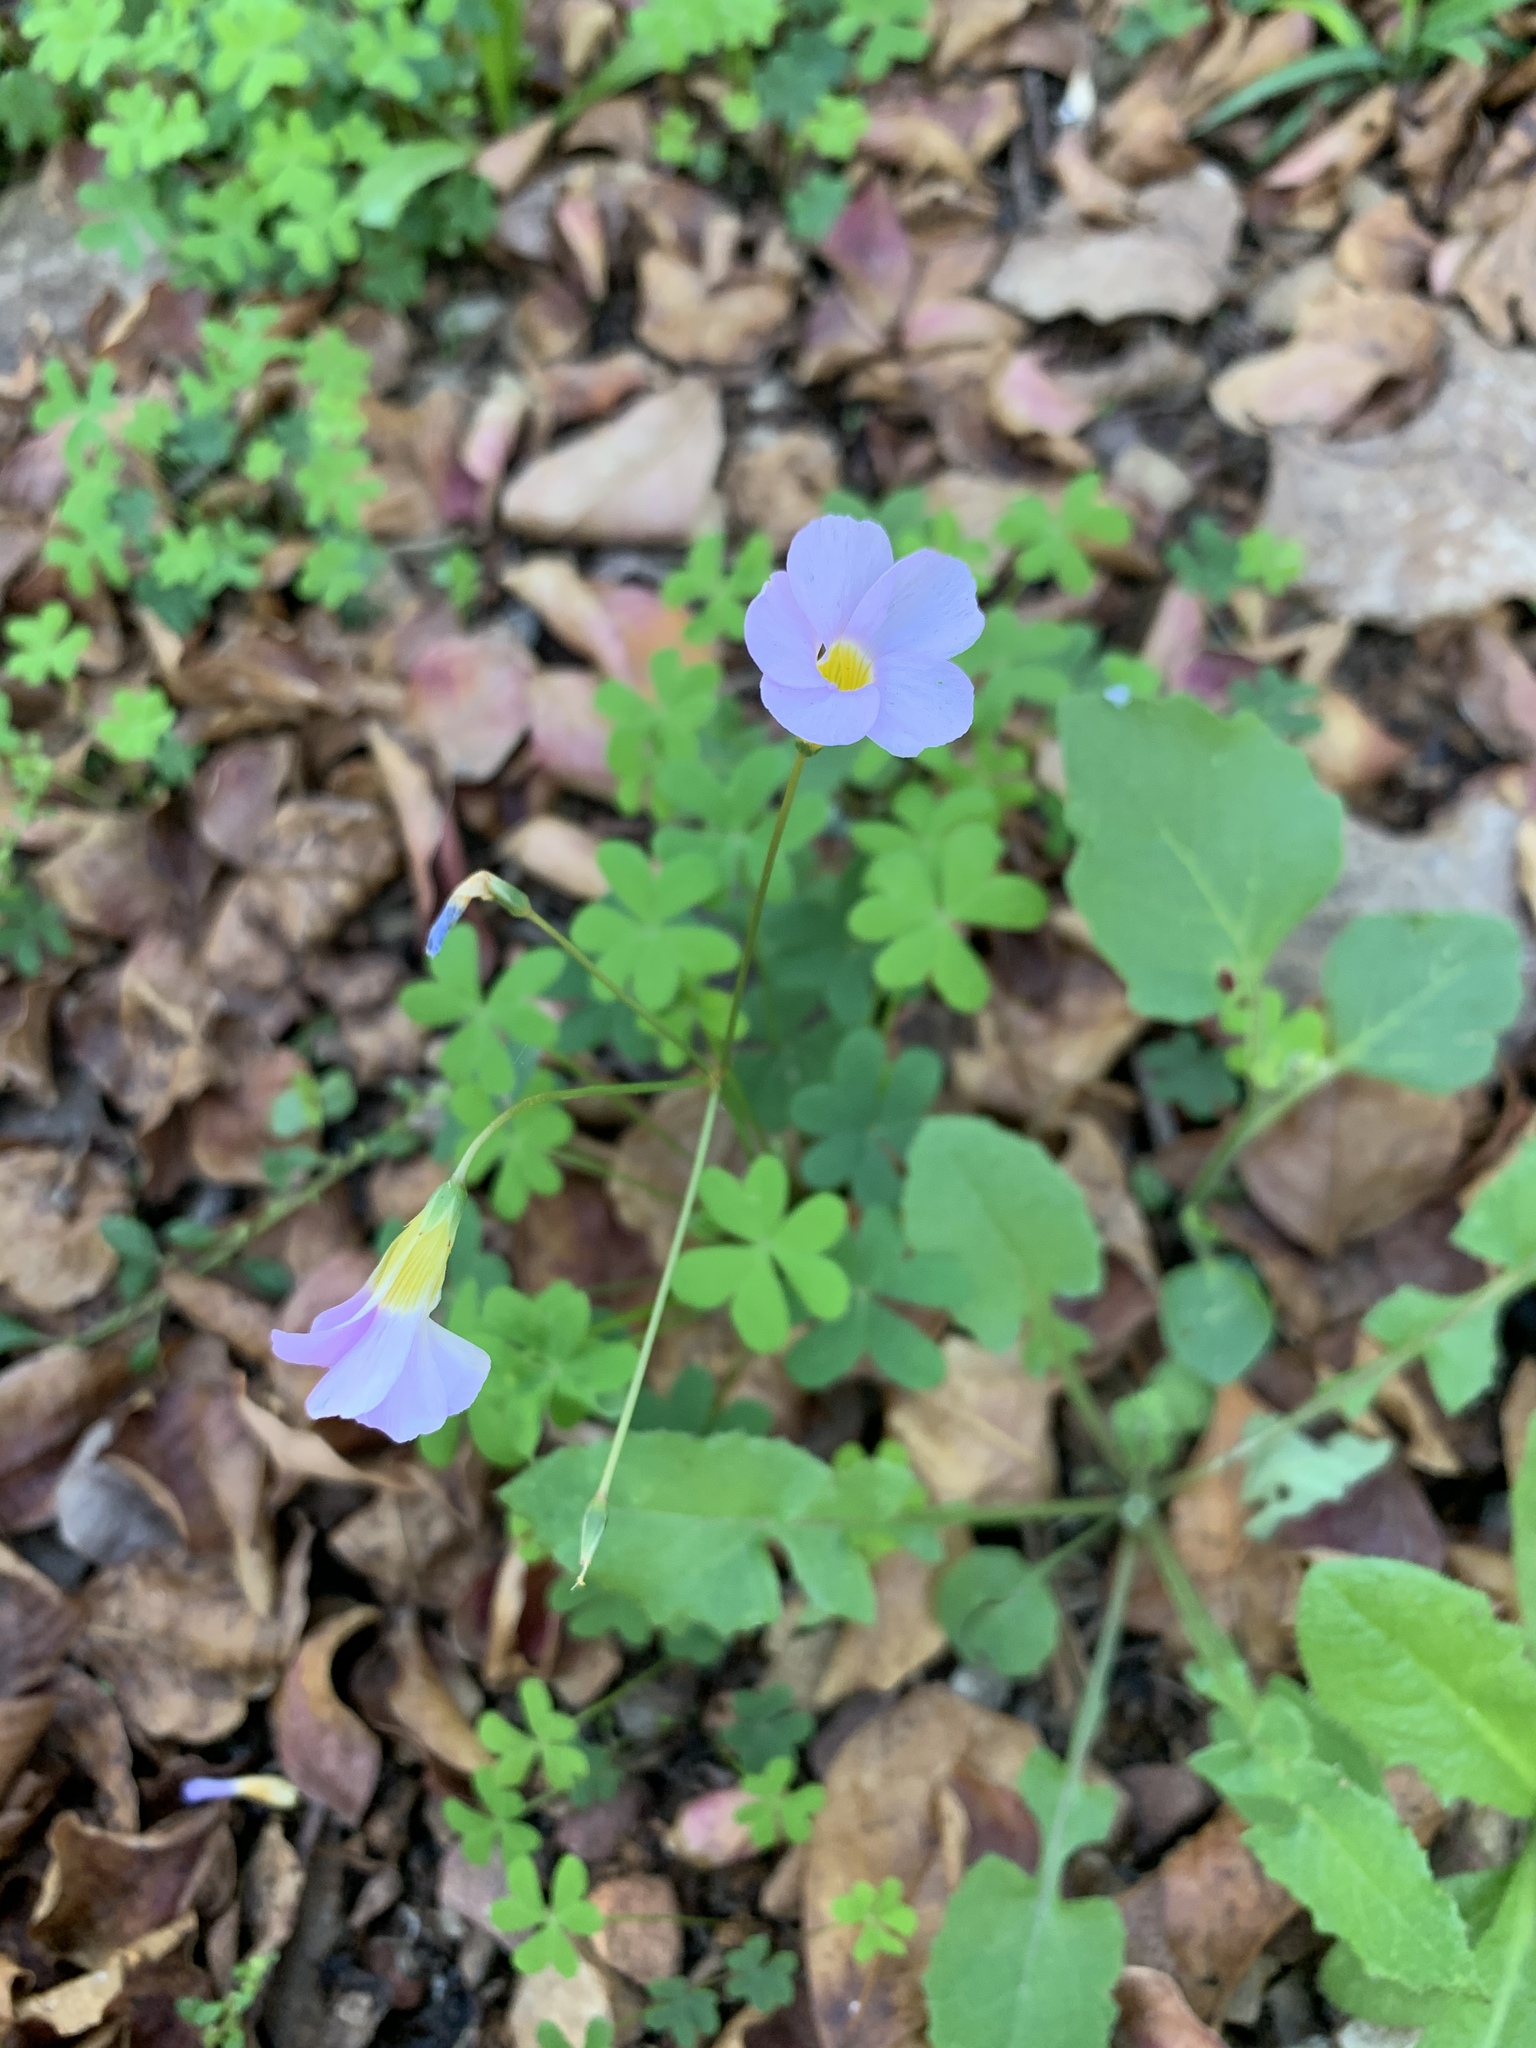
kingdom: Plantae
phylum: Tracheophyta
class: Magnoliopsida
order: Oxalidales
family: Oxalidaceae
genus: Oxalis
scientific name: Oxalis caprina
